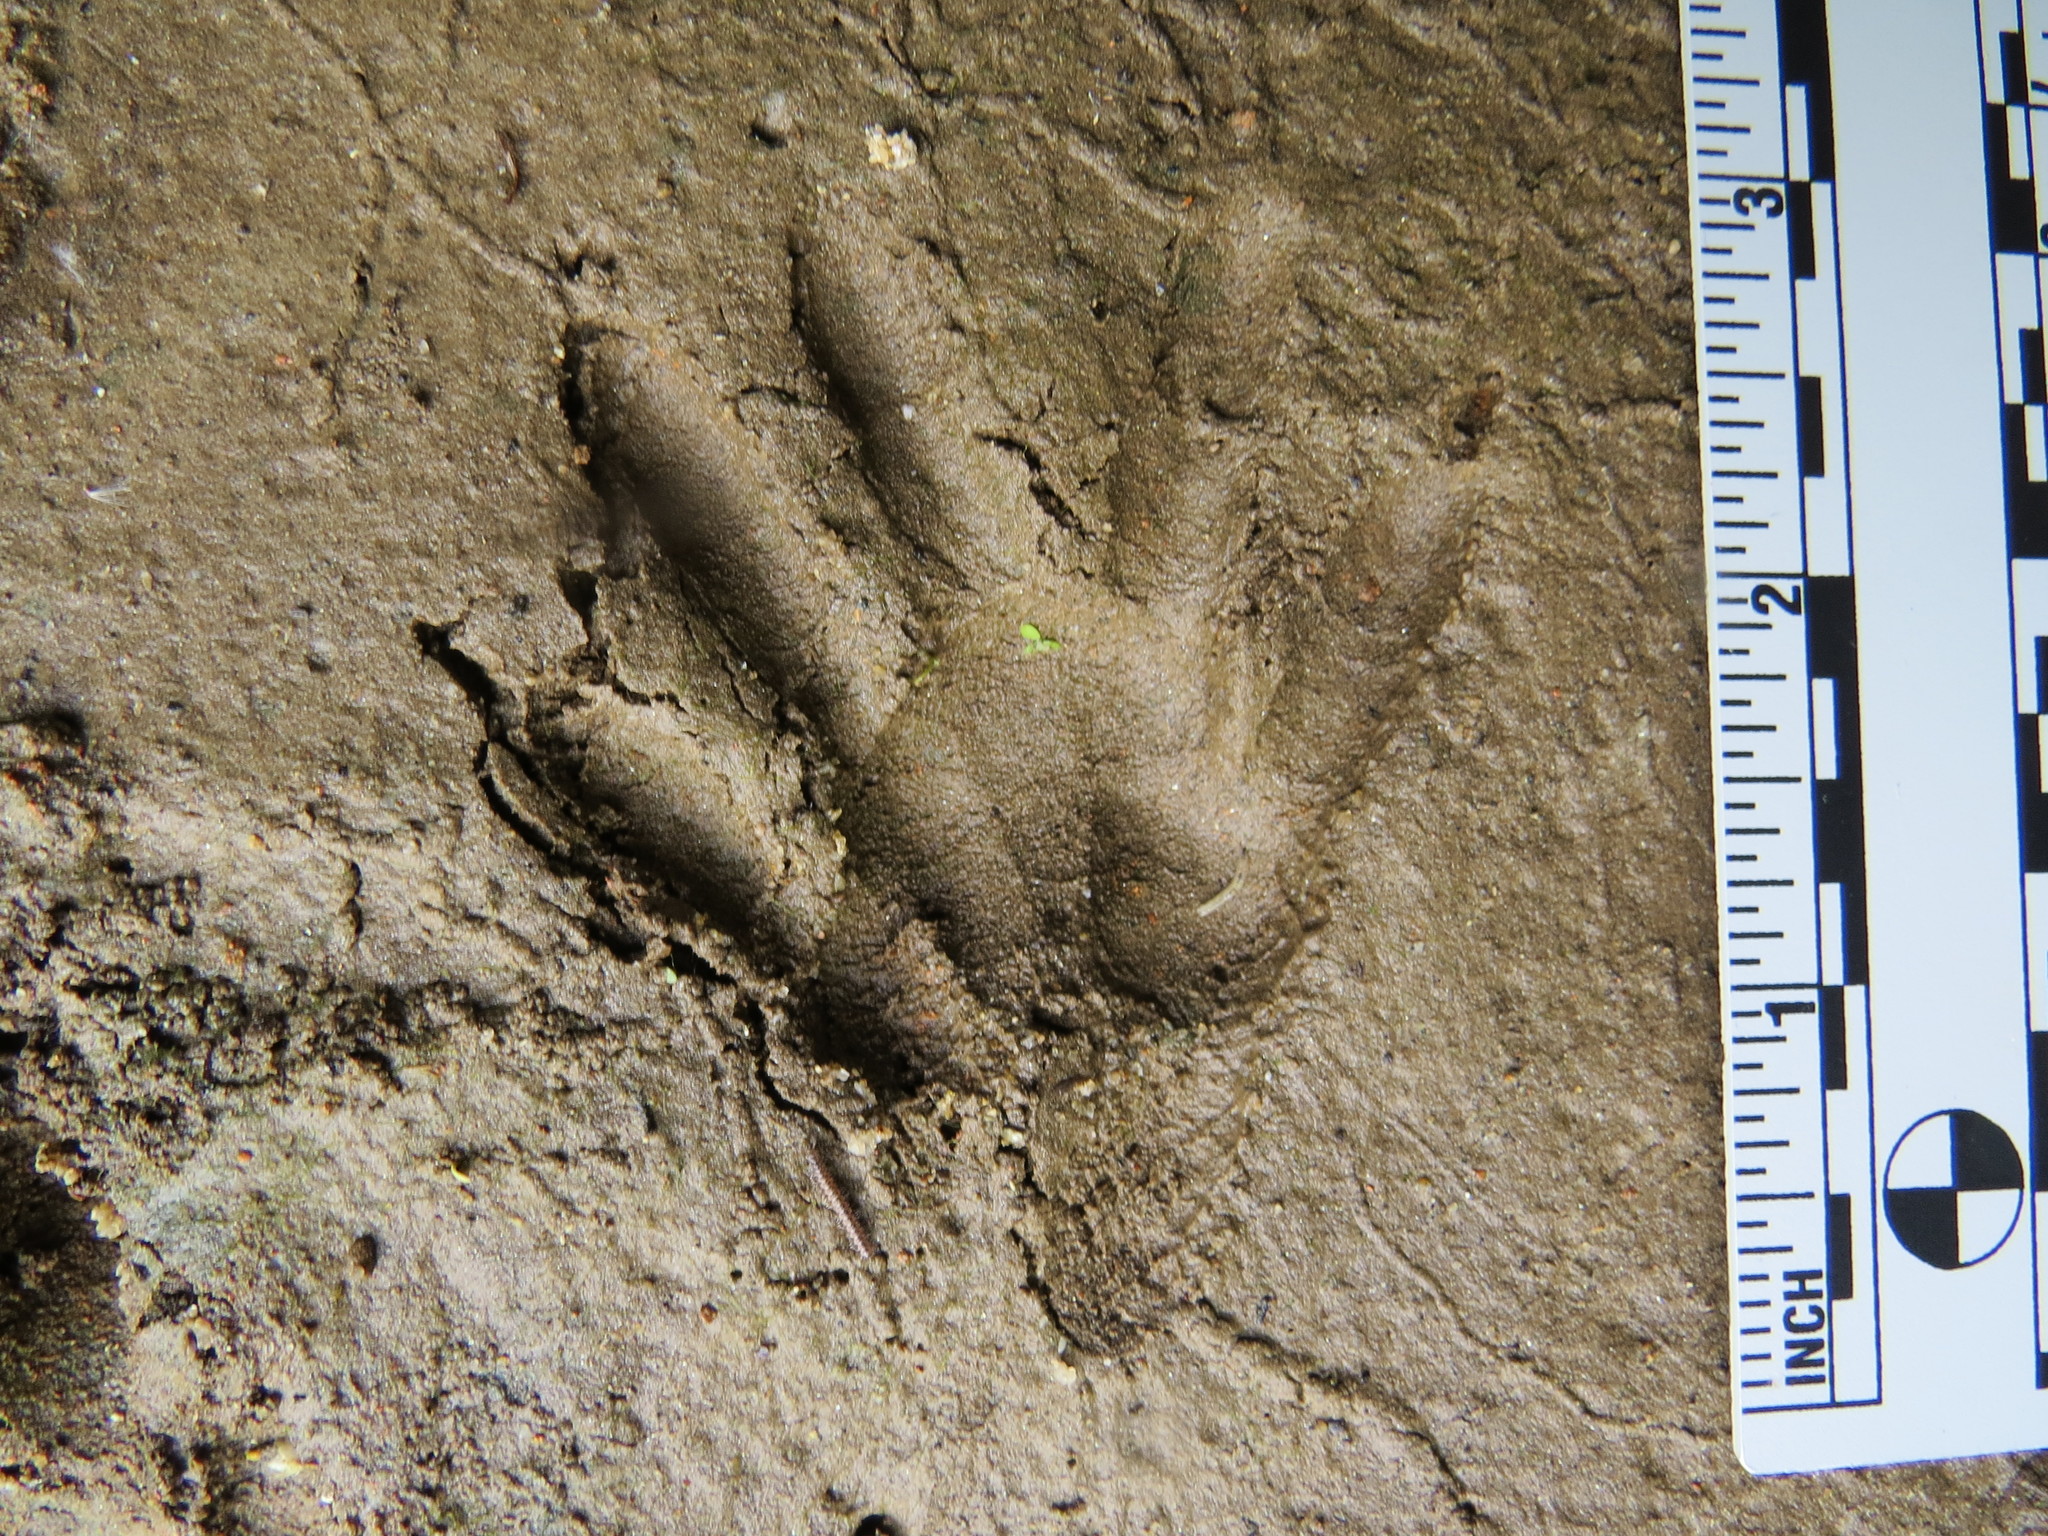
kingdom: Animalia
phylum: Chordata
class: Mammalia
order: Carnivora
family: Procyonidae
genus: Procyon
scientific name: Procyon lotor
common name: Raccoon
